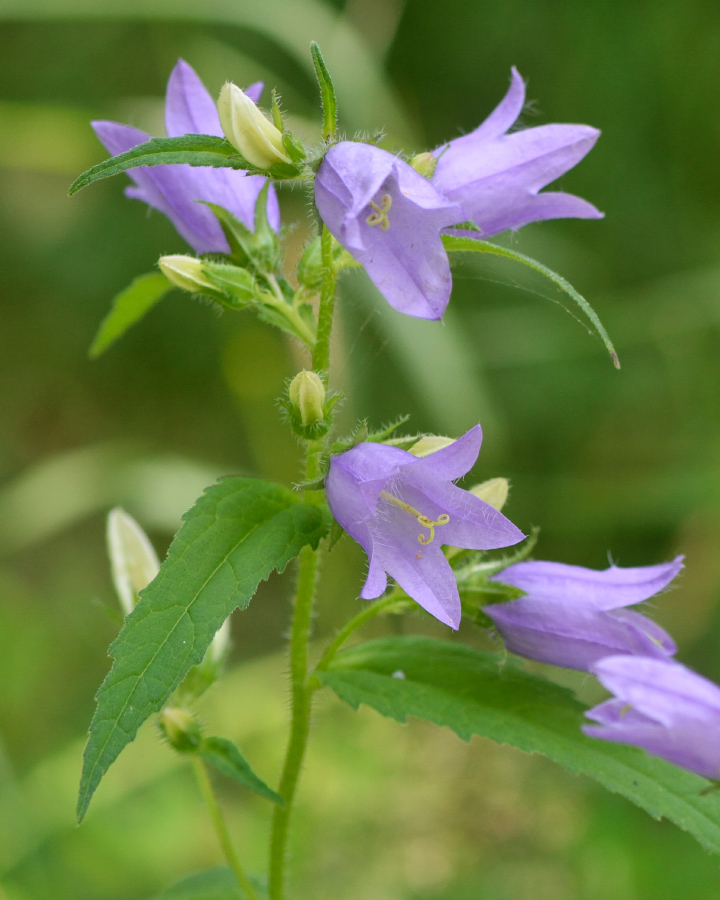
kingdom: Plantae
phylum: Tracheophyta
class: Magnoliopsida
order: Asterales
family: Campanulaceae
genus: Campanula
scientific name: Campanula trachelium
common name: Nettle-leaved bellflower
